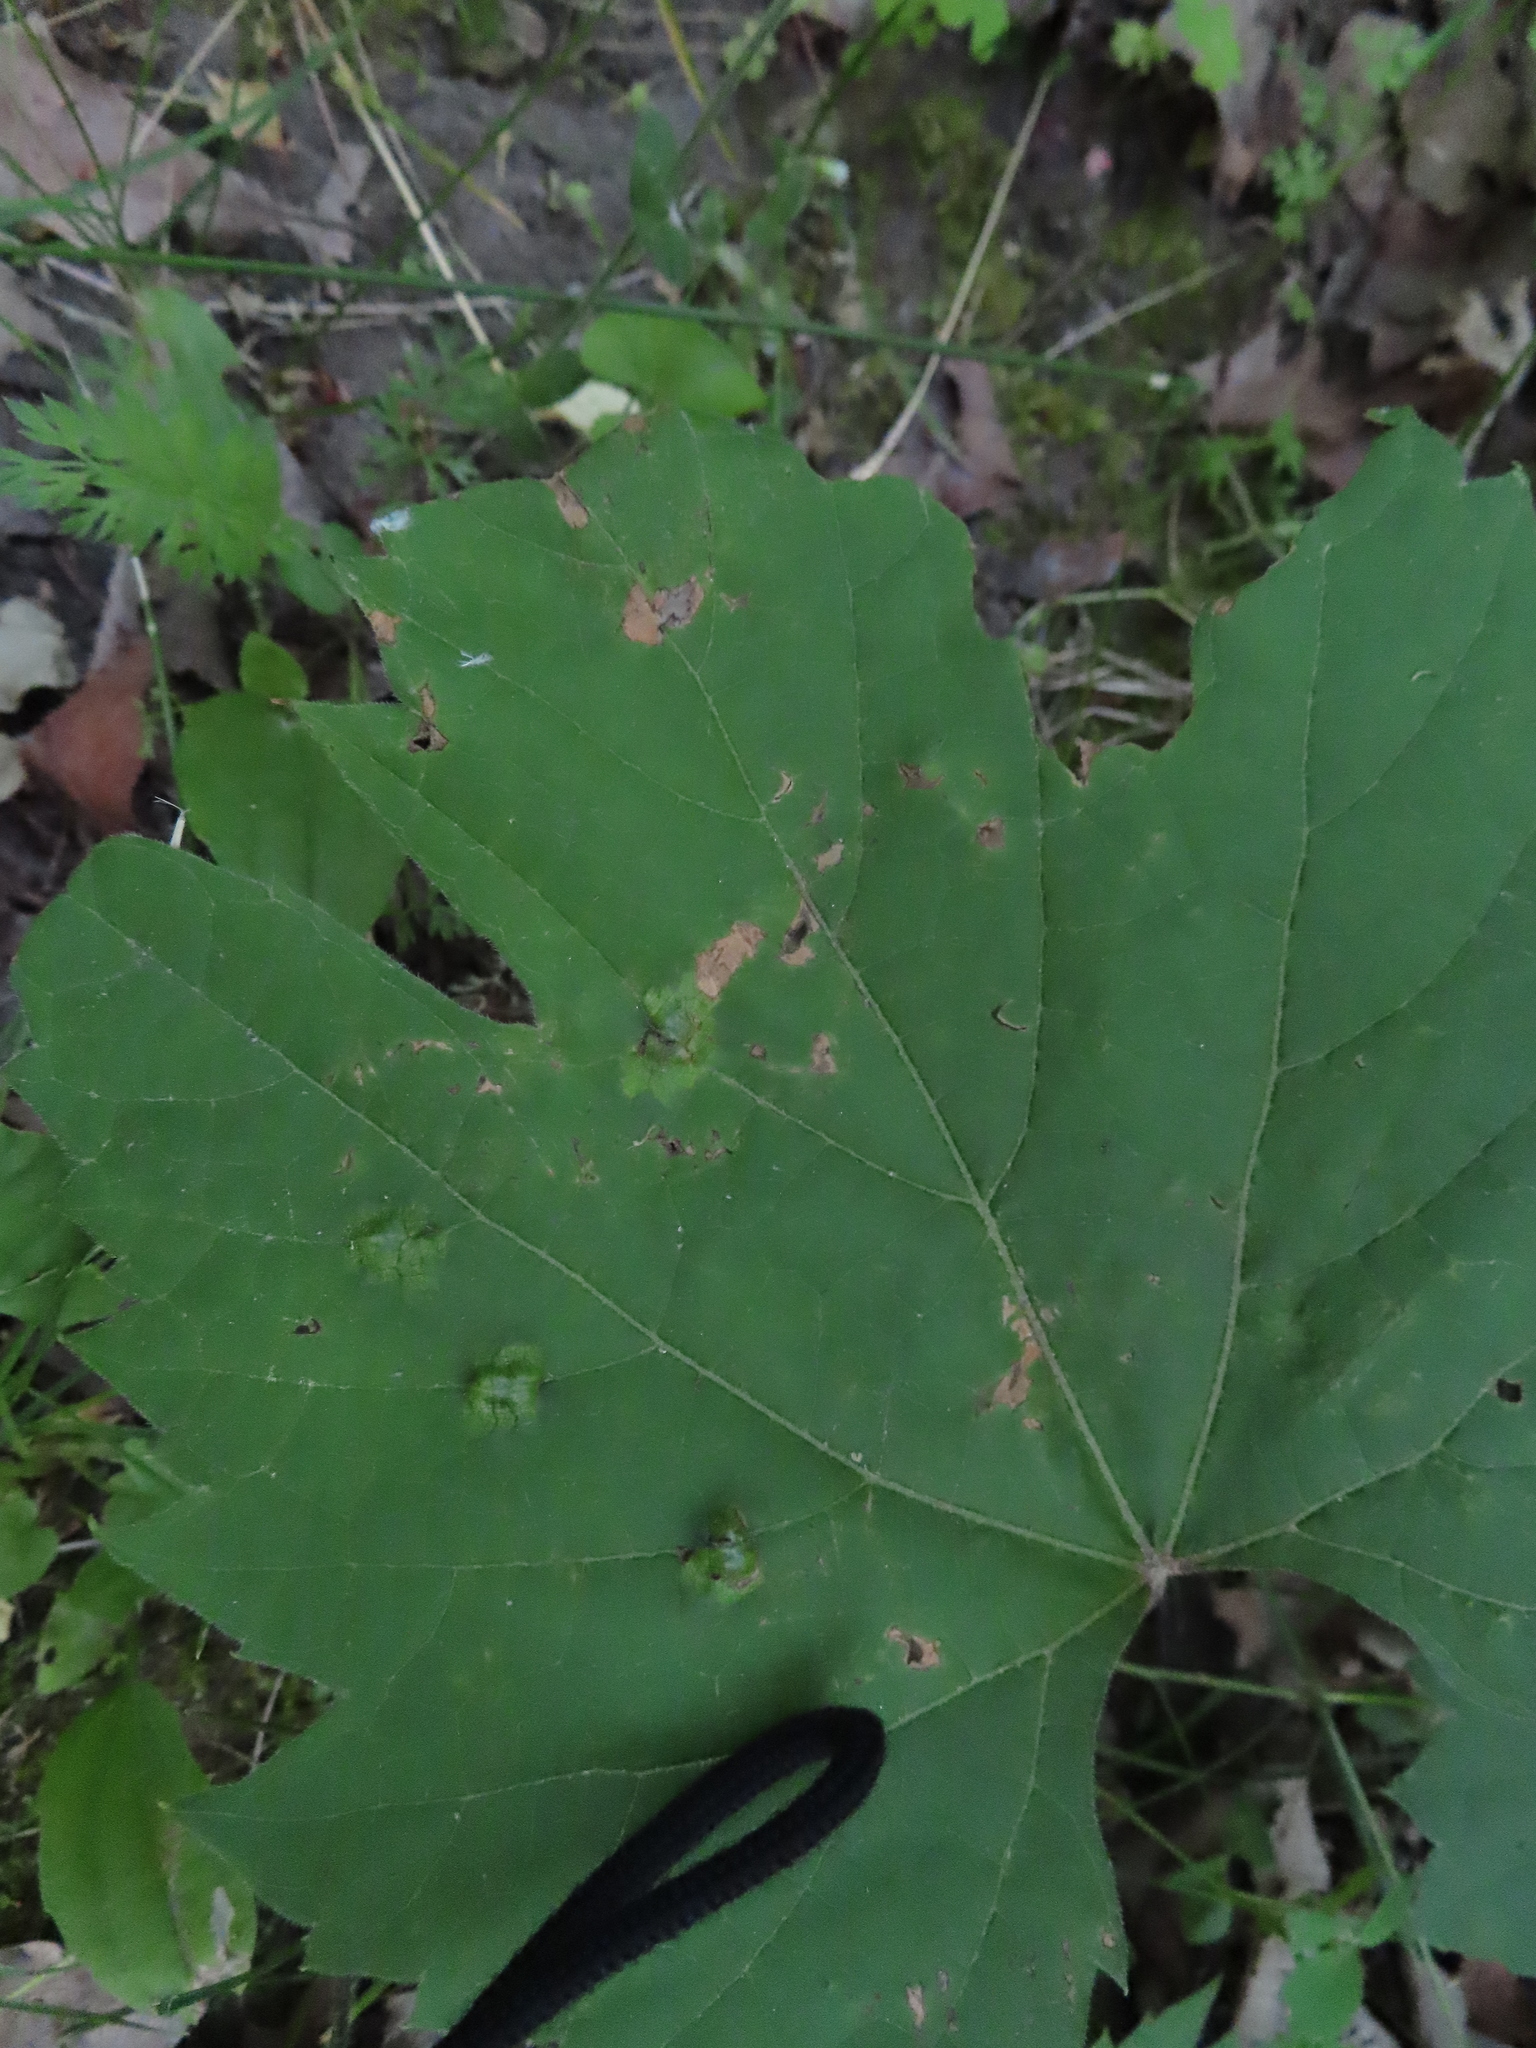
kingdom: Animalia
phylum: Arthropoda
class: Insecta
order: Lepidoptera
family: Heliozelidae
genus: Heliozela
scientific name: Heliozela aesella
